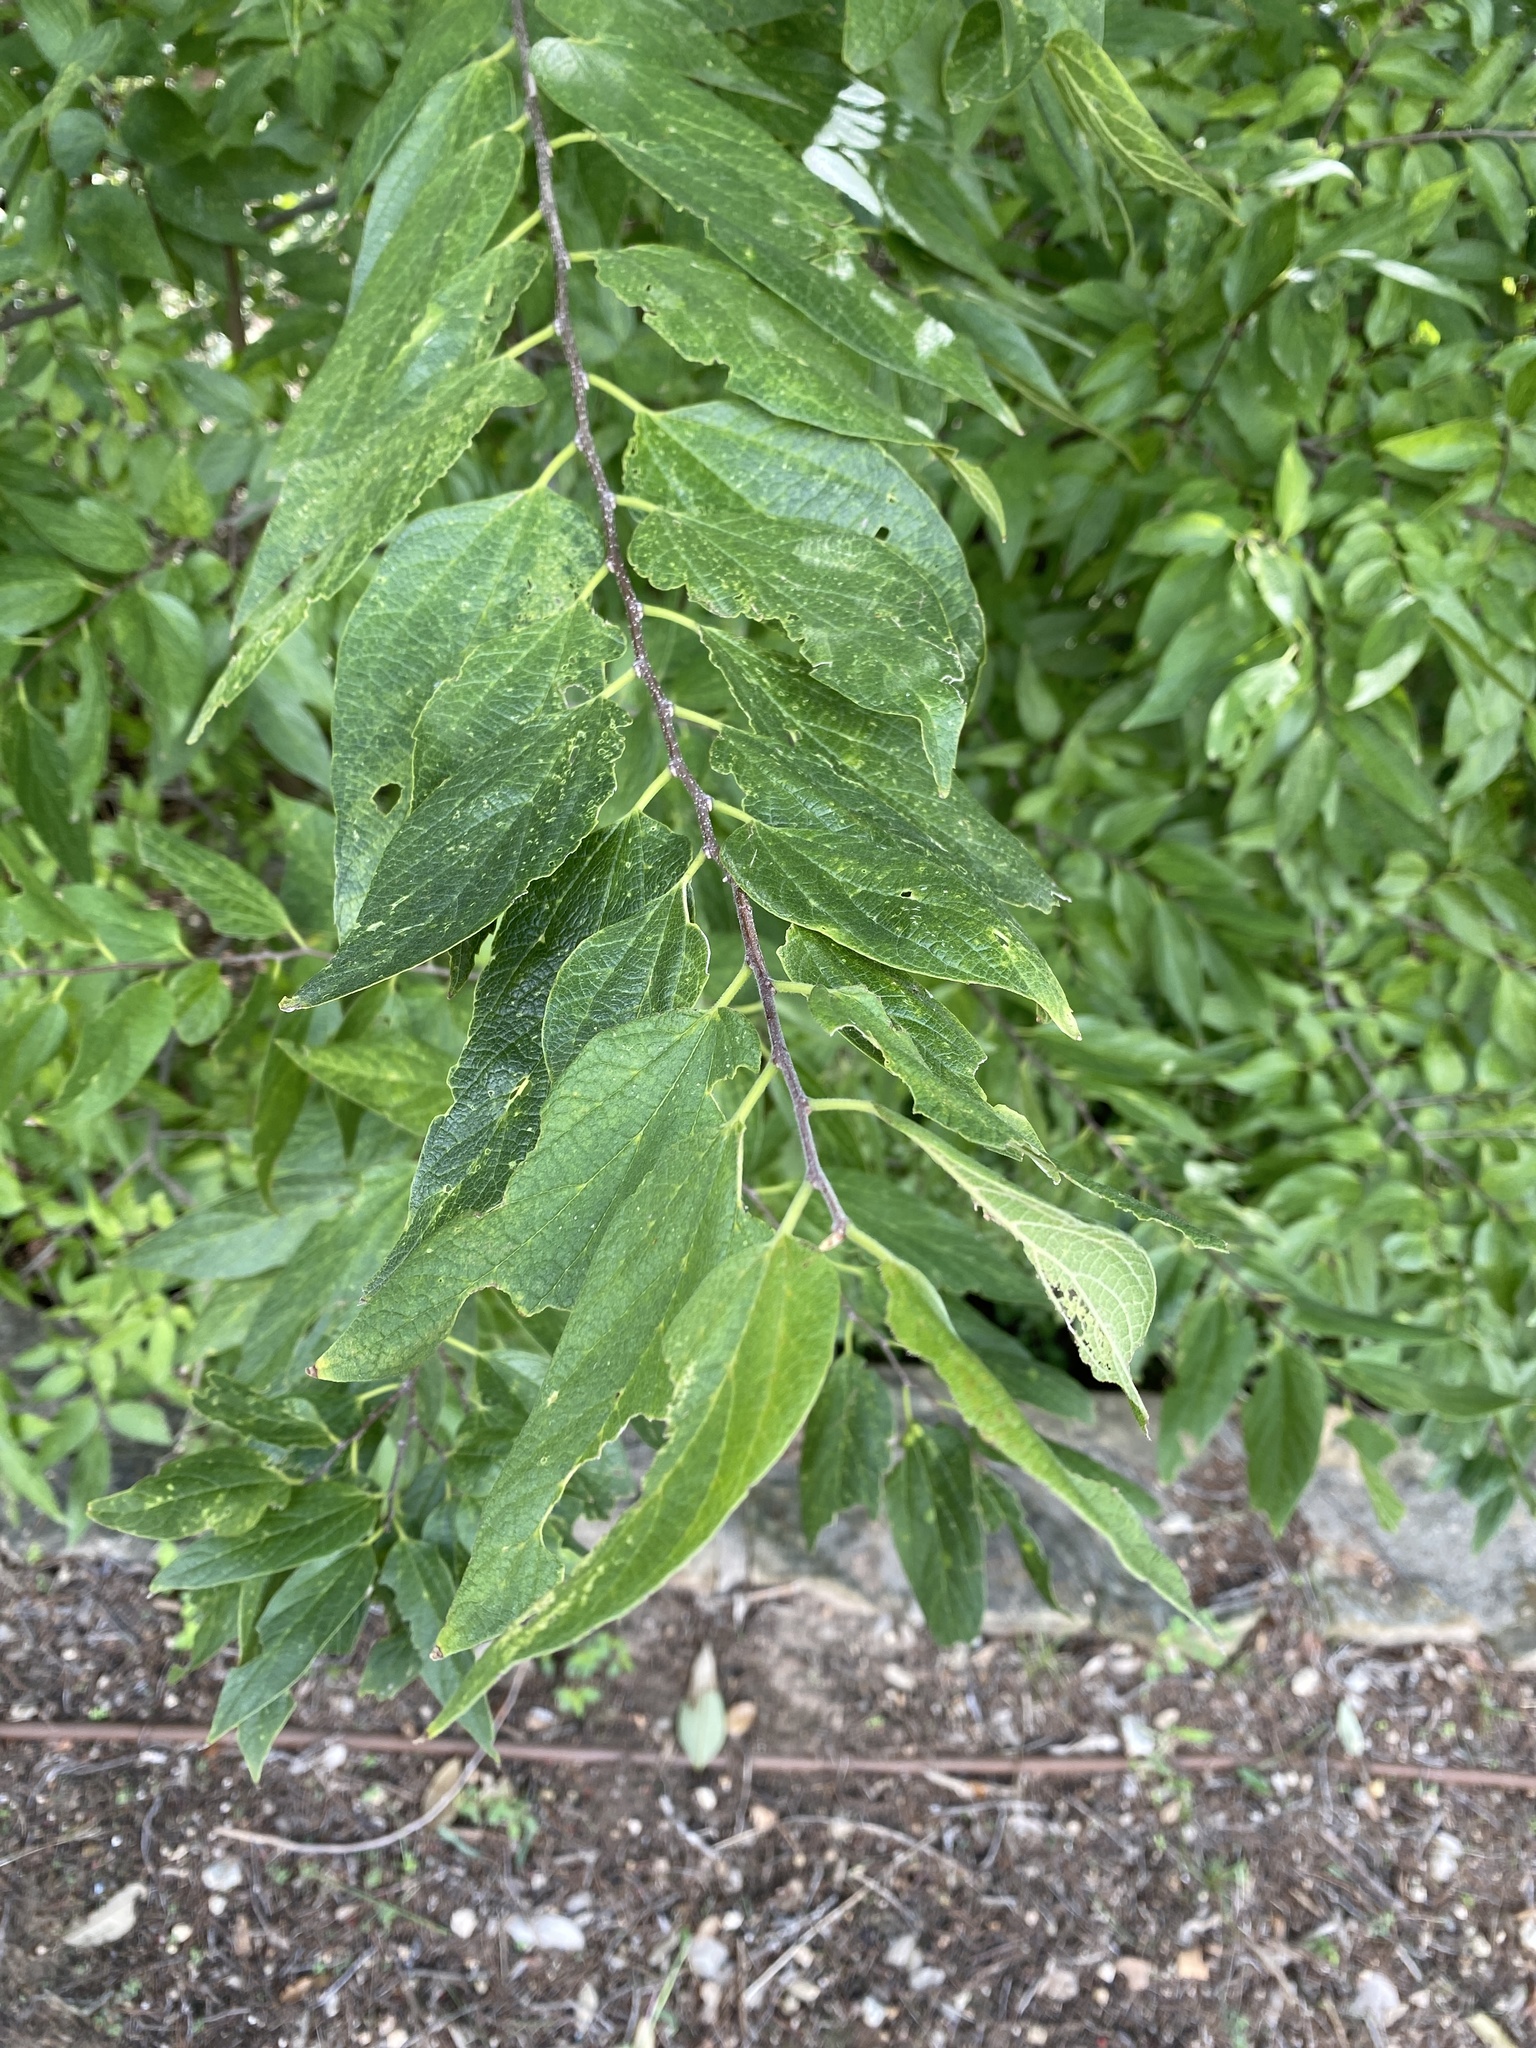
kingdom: Plantae
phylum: Tracheophyta
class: Magnoliopsida
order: Rosales
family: Cannabaceae
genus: Celtis
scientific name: Celtis laevigata
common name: Sugarberry
